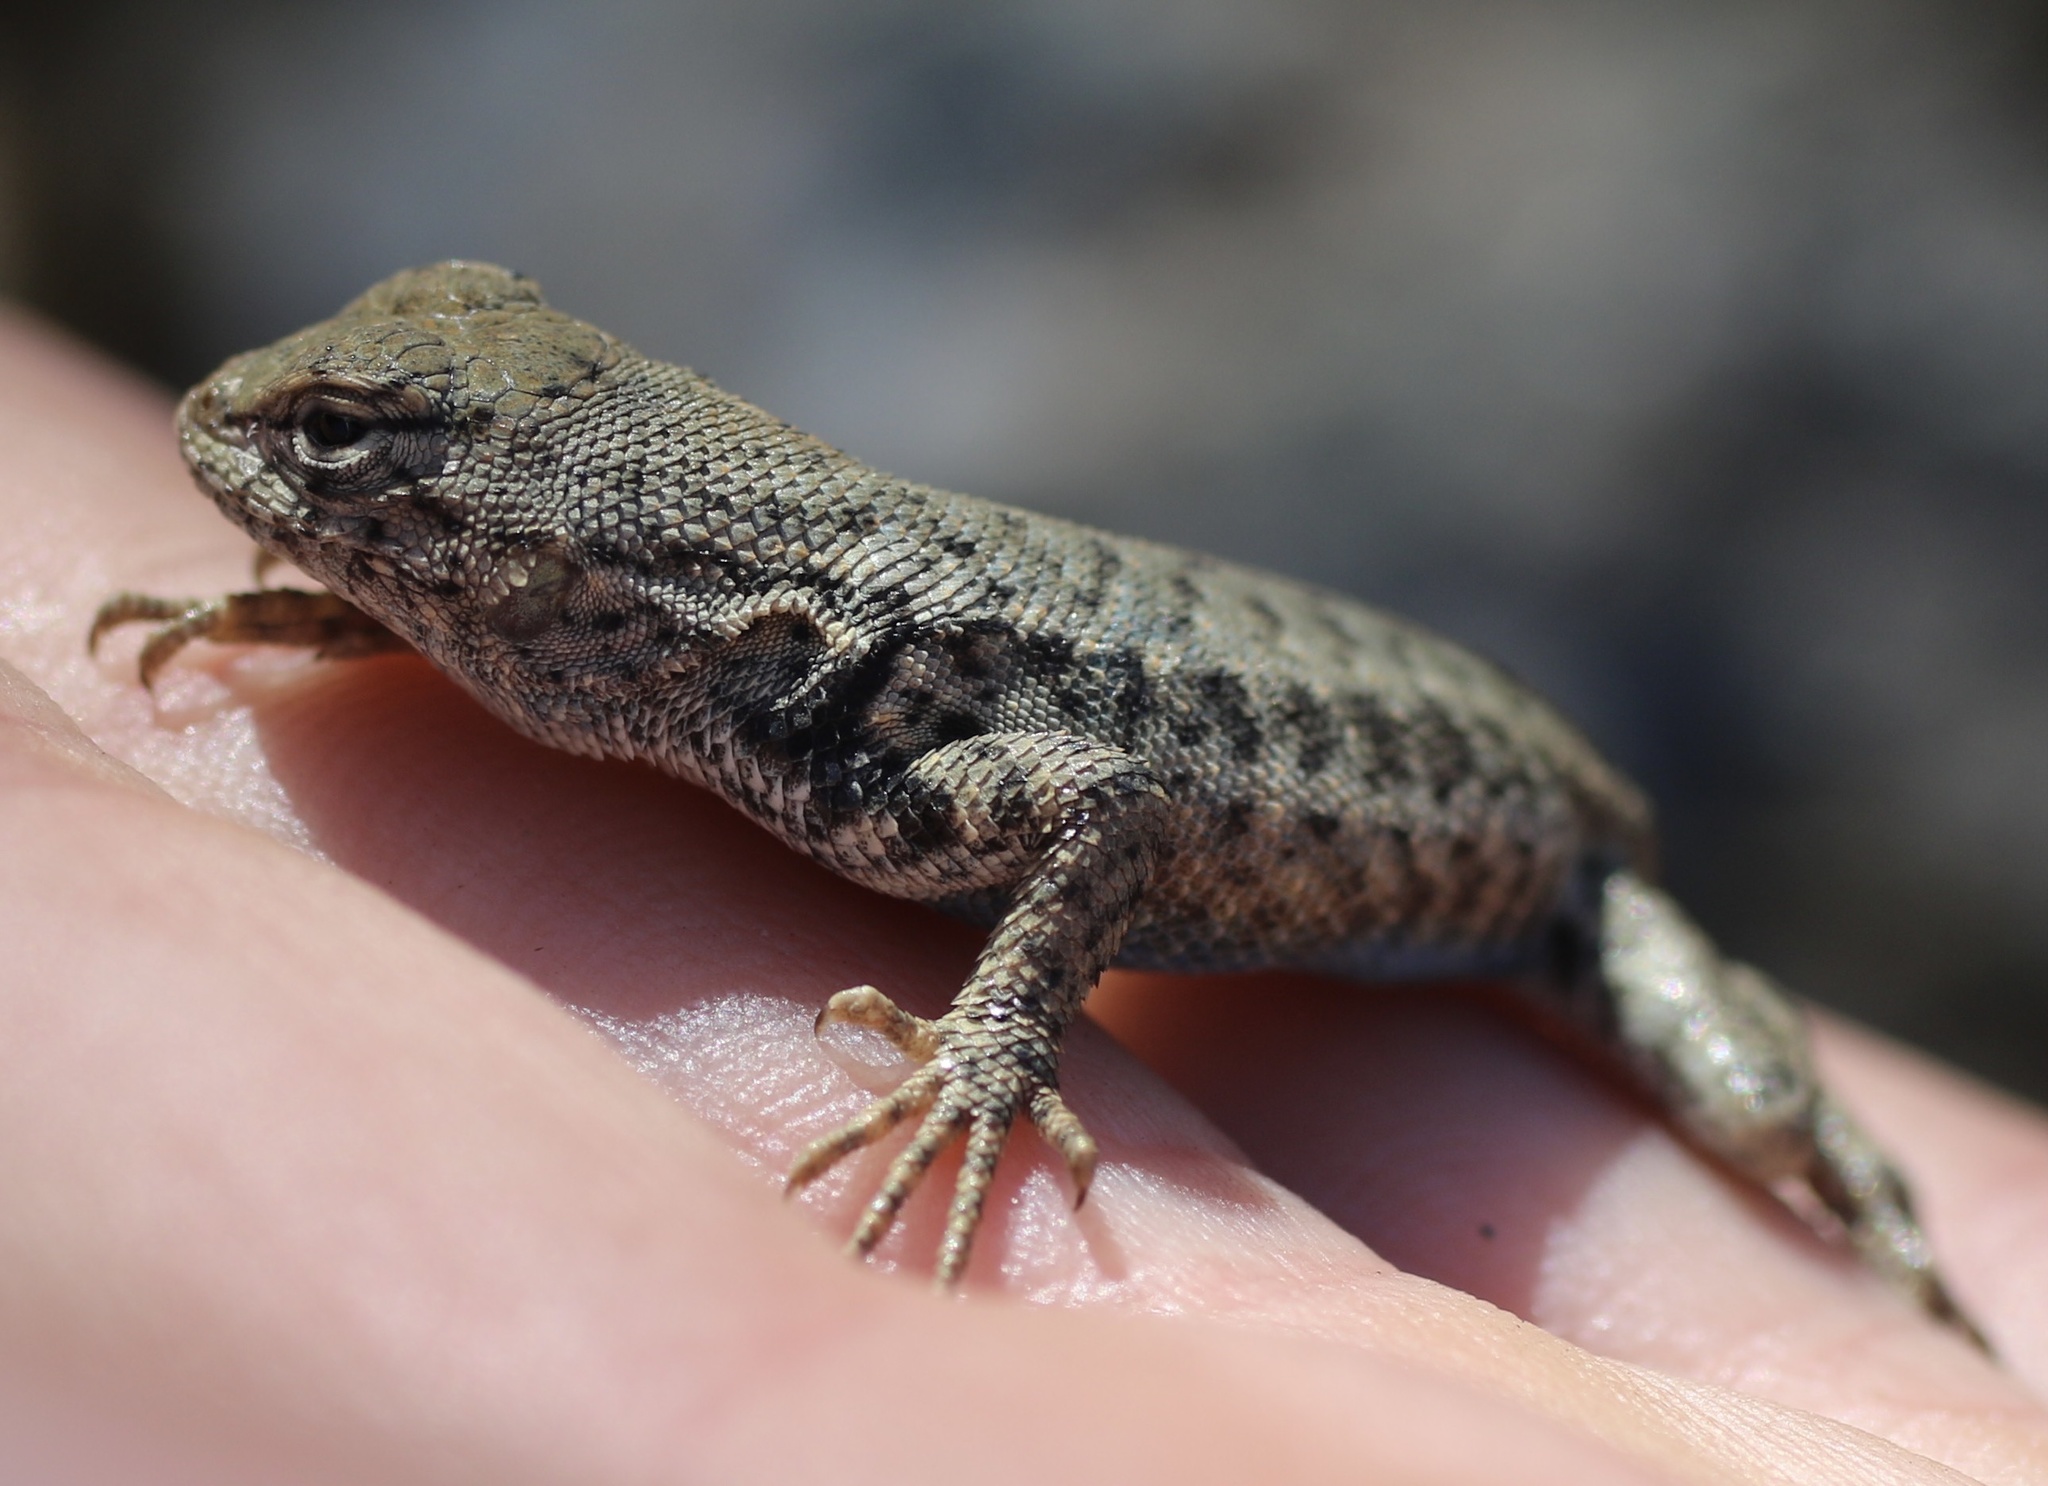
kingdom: Animalia
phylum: Chordata
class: Squamata
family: Phrynosomatidae
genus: Sceloporus
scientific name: Sceloporus graciosus
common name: Sagebrush lizard
